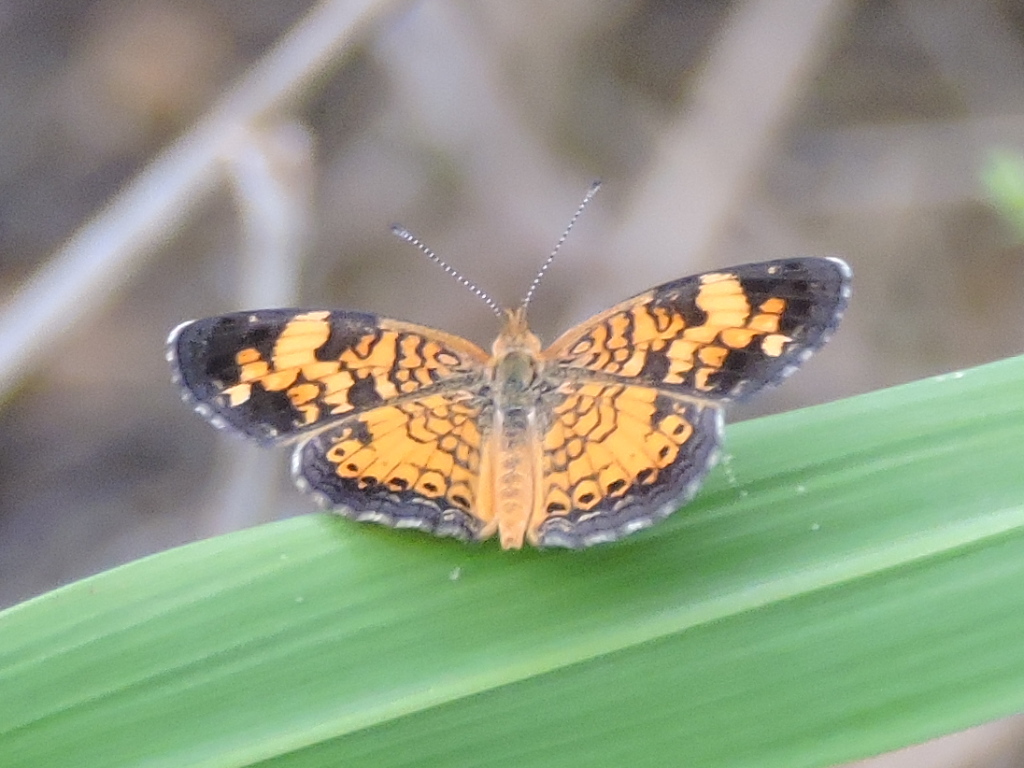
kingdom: Animalia
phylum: Arthropoda
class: Insecta
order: Lepidoptera
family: Nymphalidae
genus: Phyciodes
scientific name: Phyciodes tharos
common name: Pearl crescent
